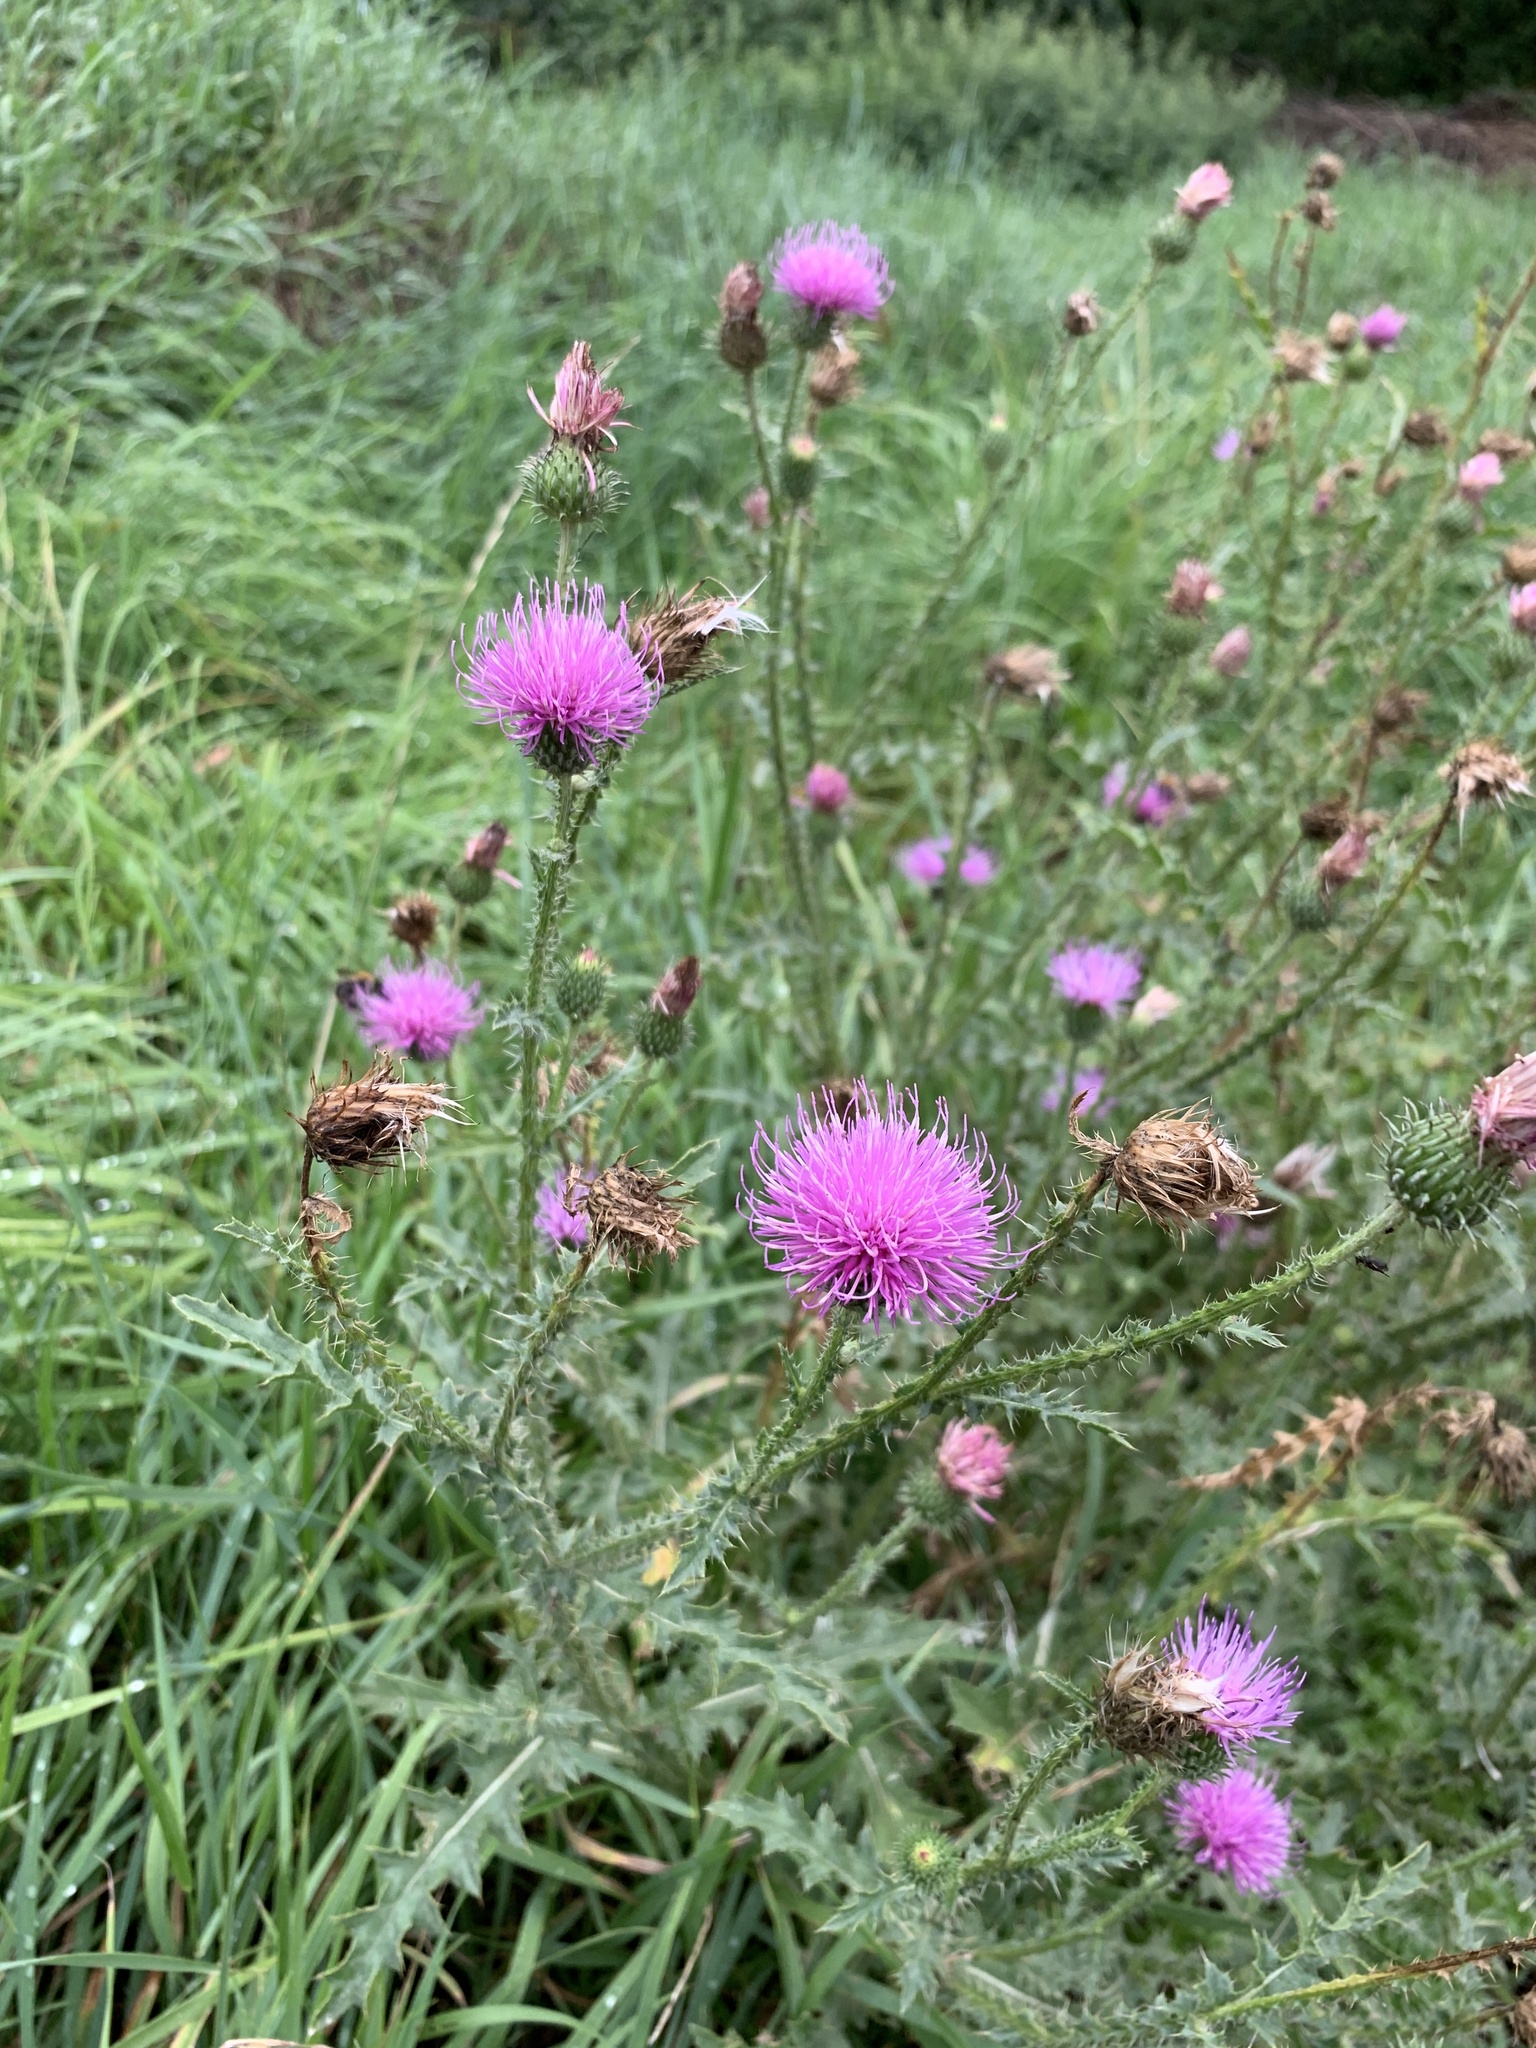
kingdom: Plantae
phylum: Tracheophyta
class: Magnoliopsida
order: Asterales
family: Asteraceae
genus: Carduus
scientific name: Carduus acanthoides
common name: Plumeless thistle
